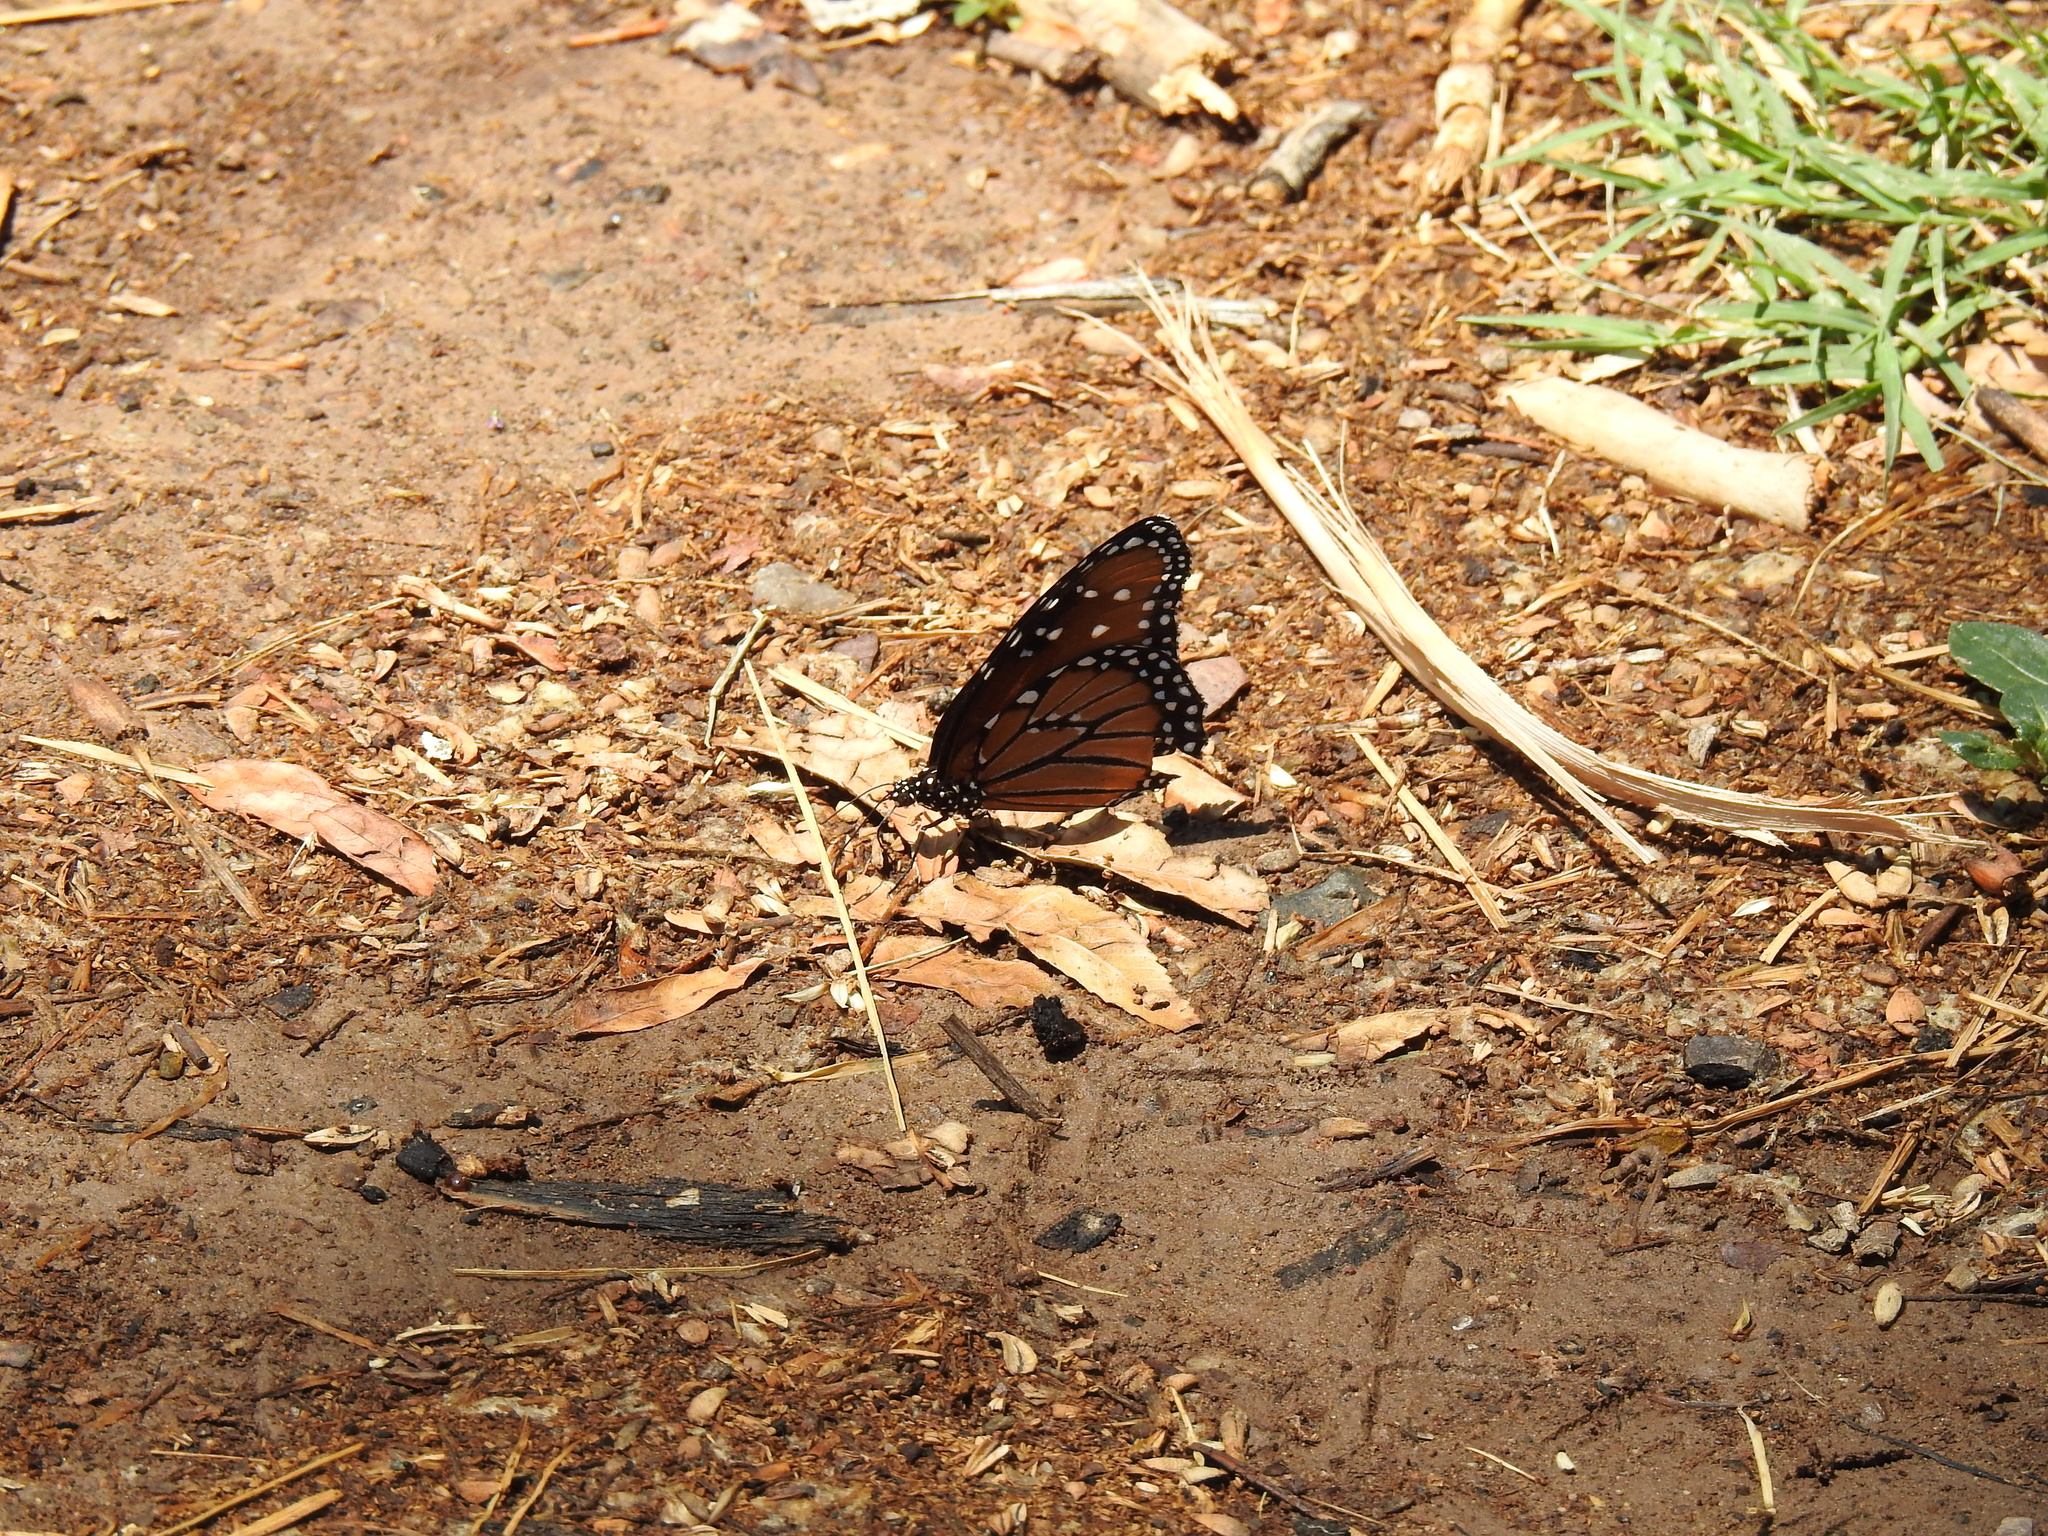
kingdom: Animalia
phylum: Arthropoda
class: Insecta
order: Lepidoptera
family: Nymphalidae
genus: Danaus
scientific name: Danaus gilippus
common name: Queen
